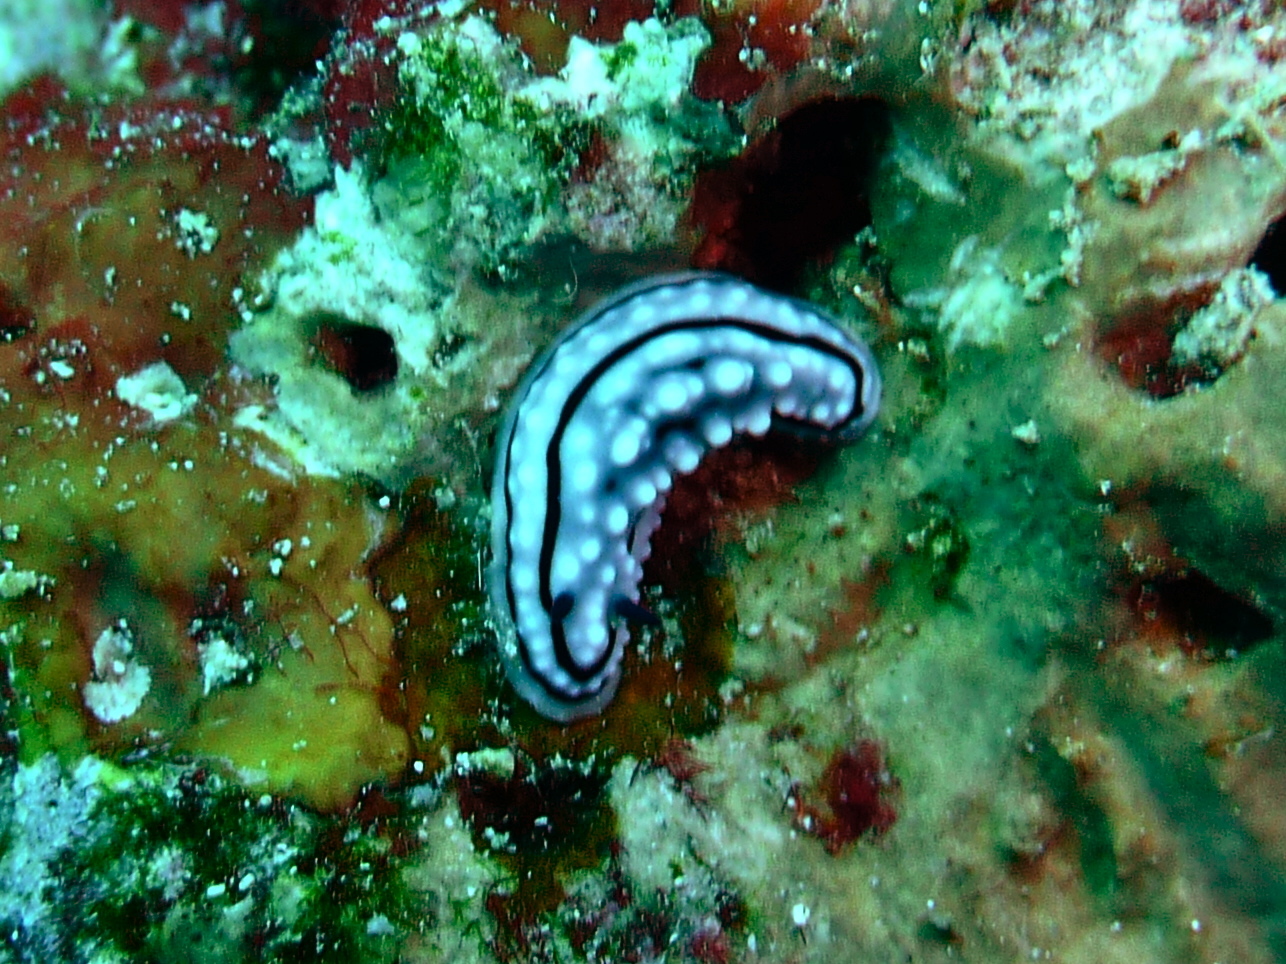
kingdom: Animalia
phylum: Mollusca
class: Gastropoda
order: Nudibranchia
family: Phyllidiidae
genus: Phyllidiella
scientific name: Phyllidiella zeylanica
